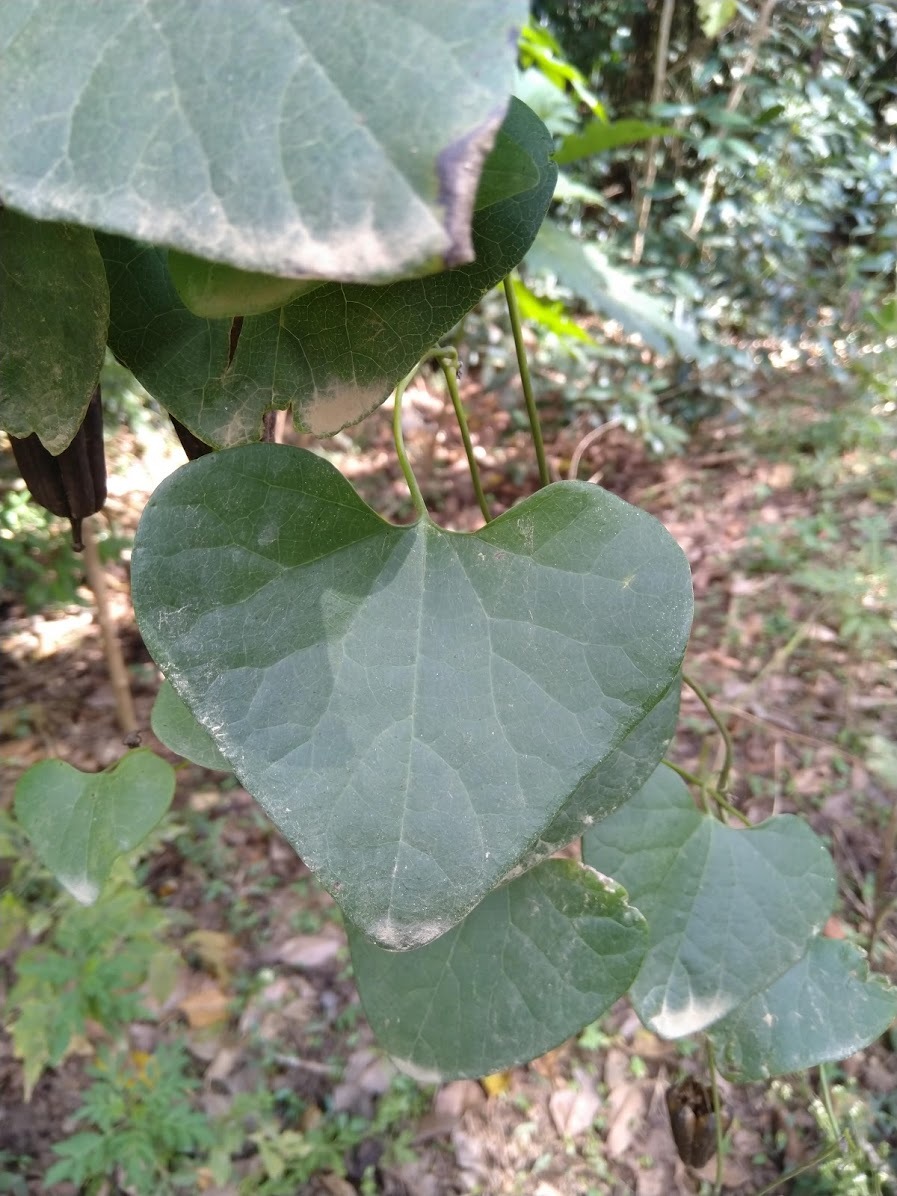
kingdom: Plantae
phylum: Tracheophyta
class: Magnoliopsida
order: Piperales
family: Aristolochiaceae
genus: Aristolochia
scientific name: Aristolochia littoralis
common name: Duck
